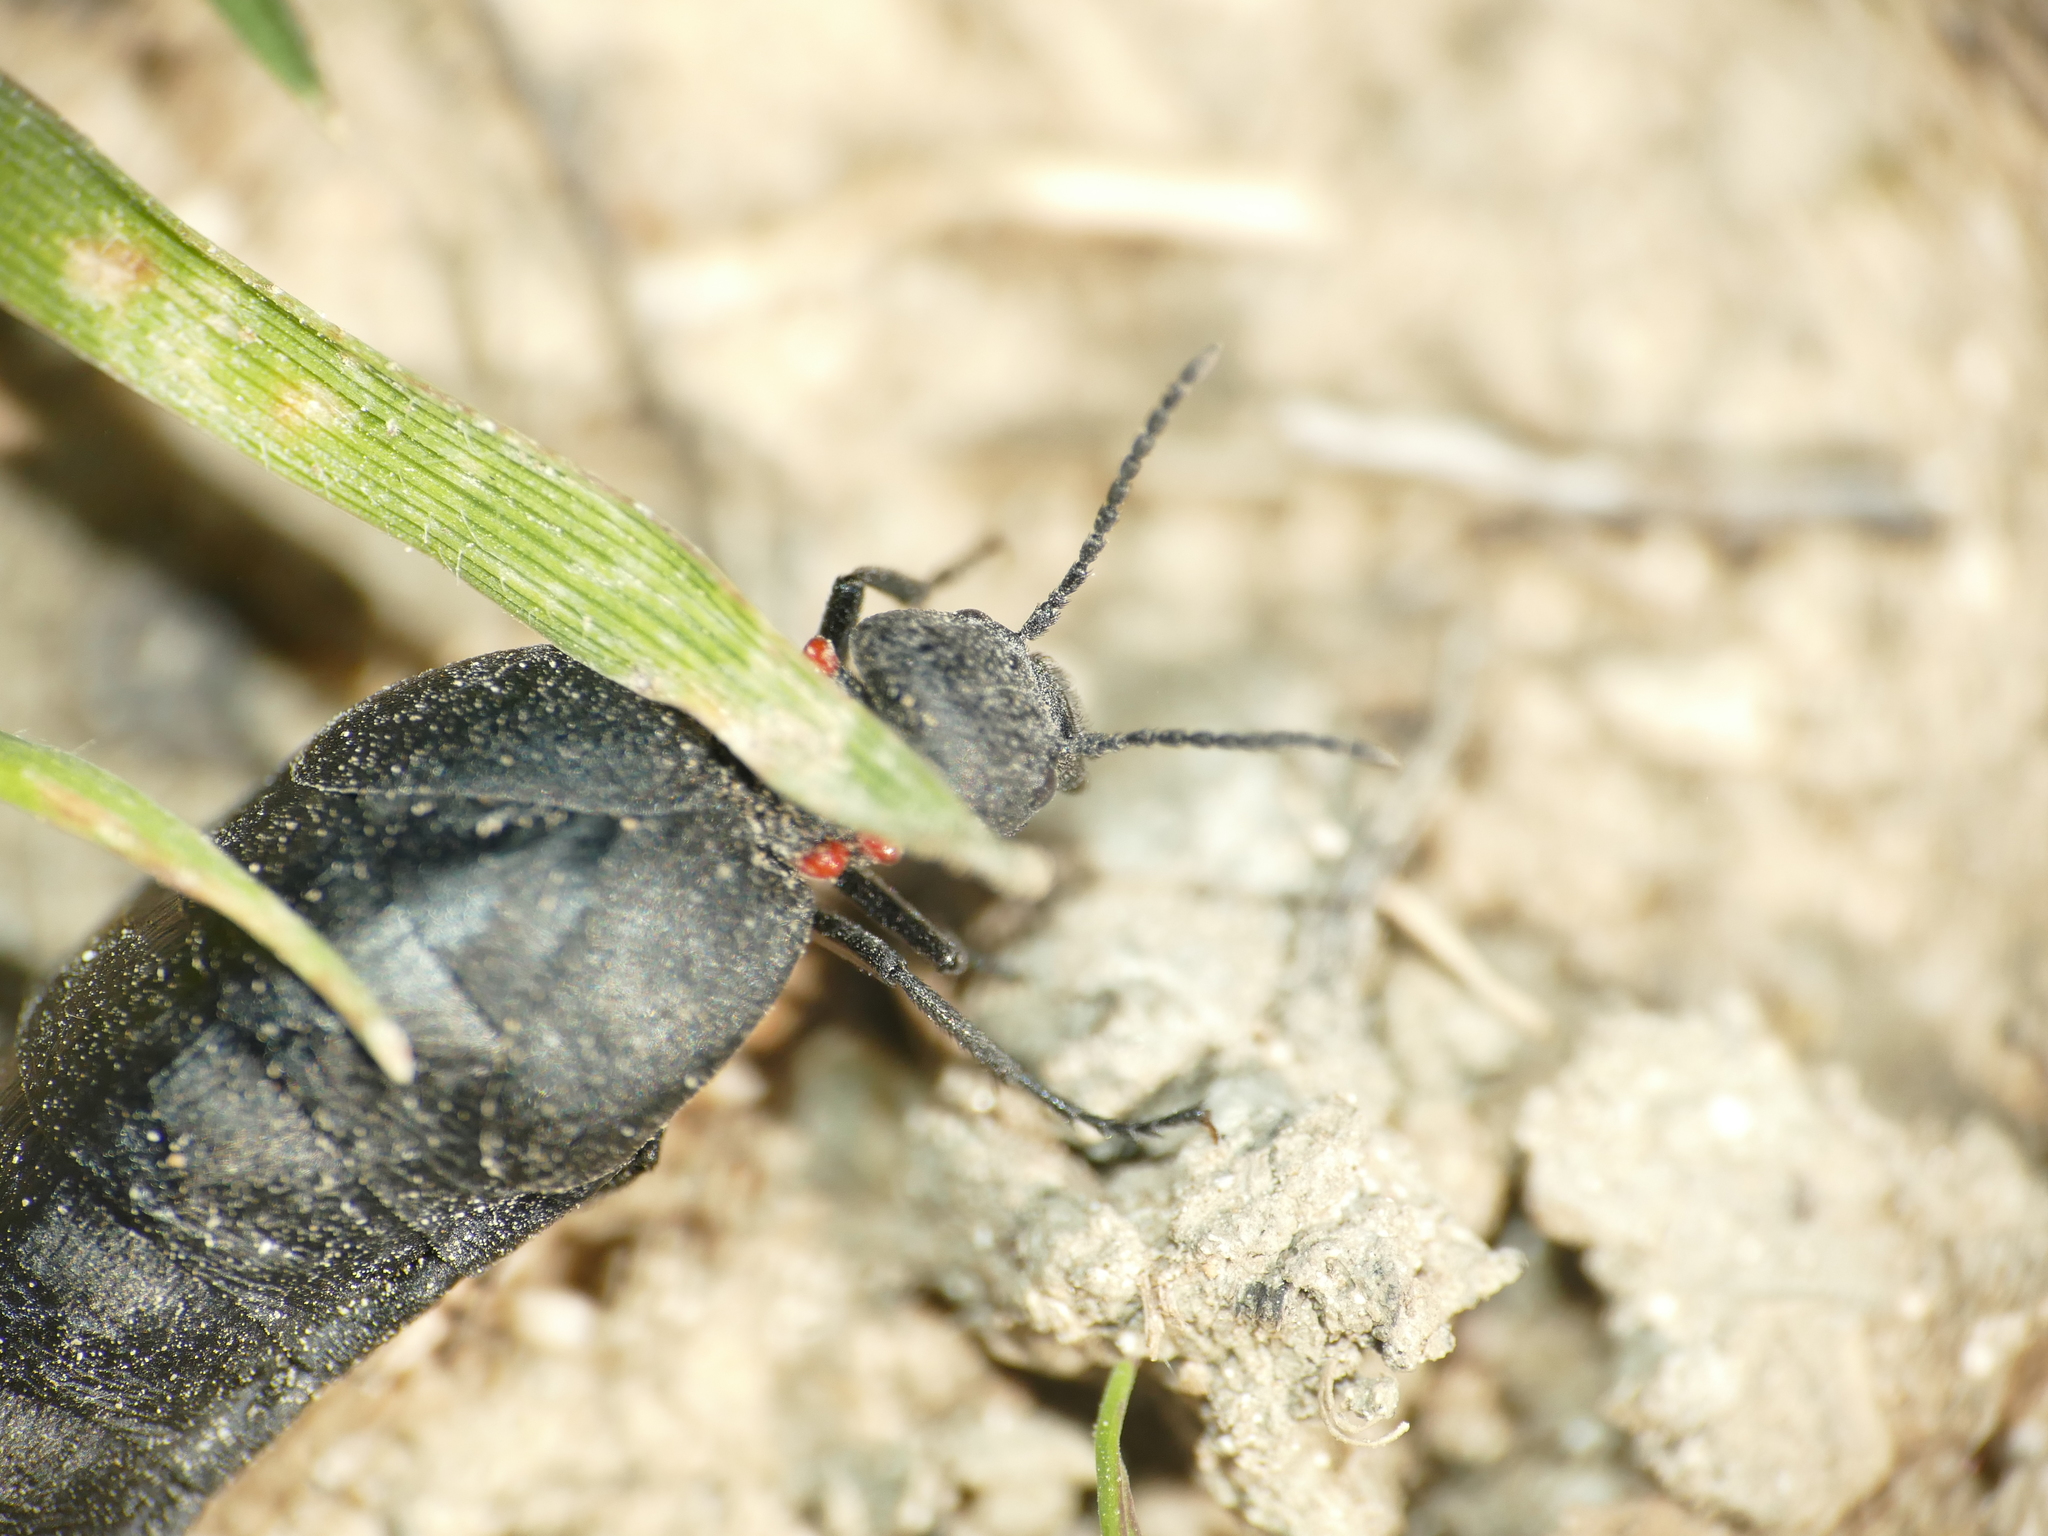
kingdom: Animalia
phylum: Arthropoda
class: Insecta
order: Coleoptera
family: Meloidae
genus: Physomeloe
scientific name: Physomeloe corallifer
